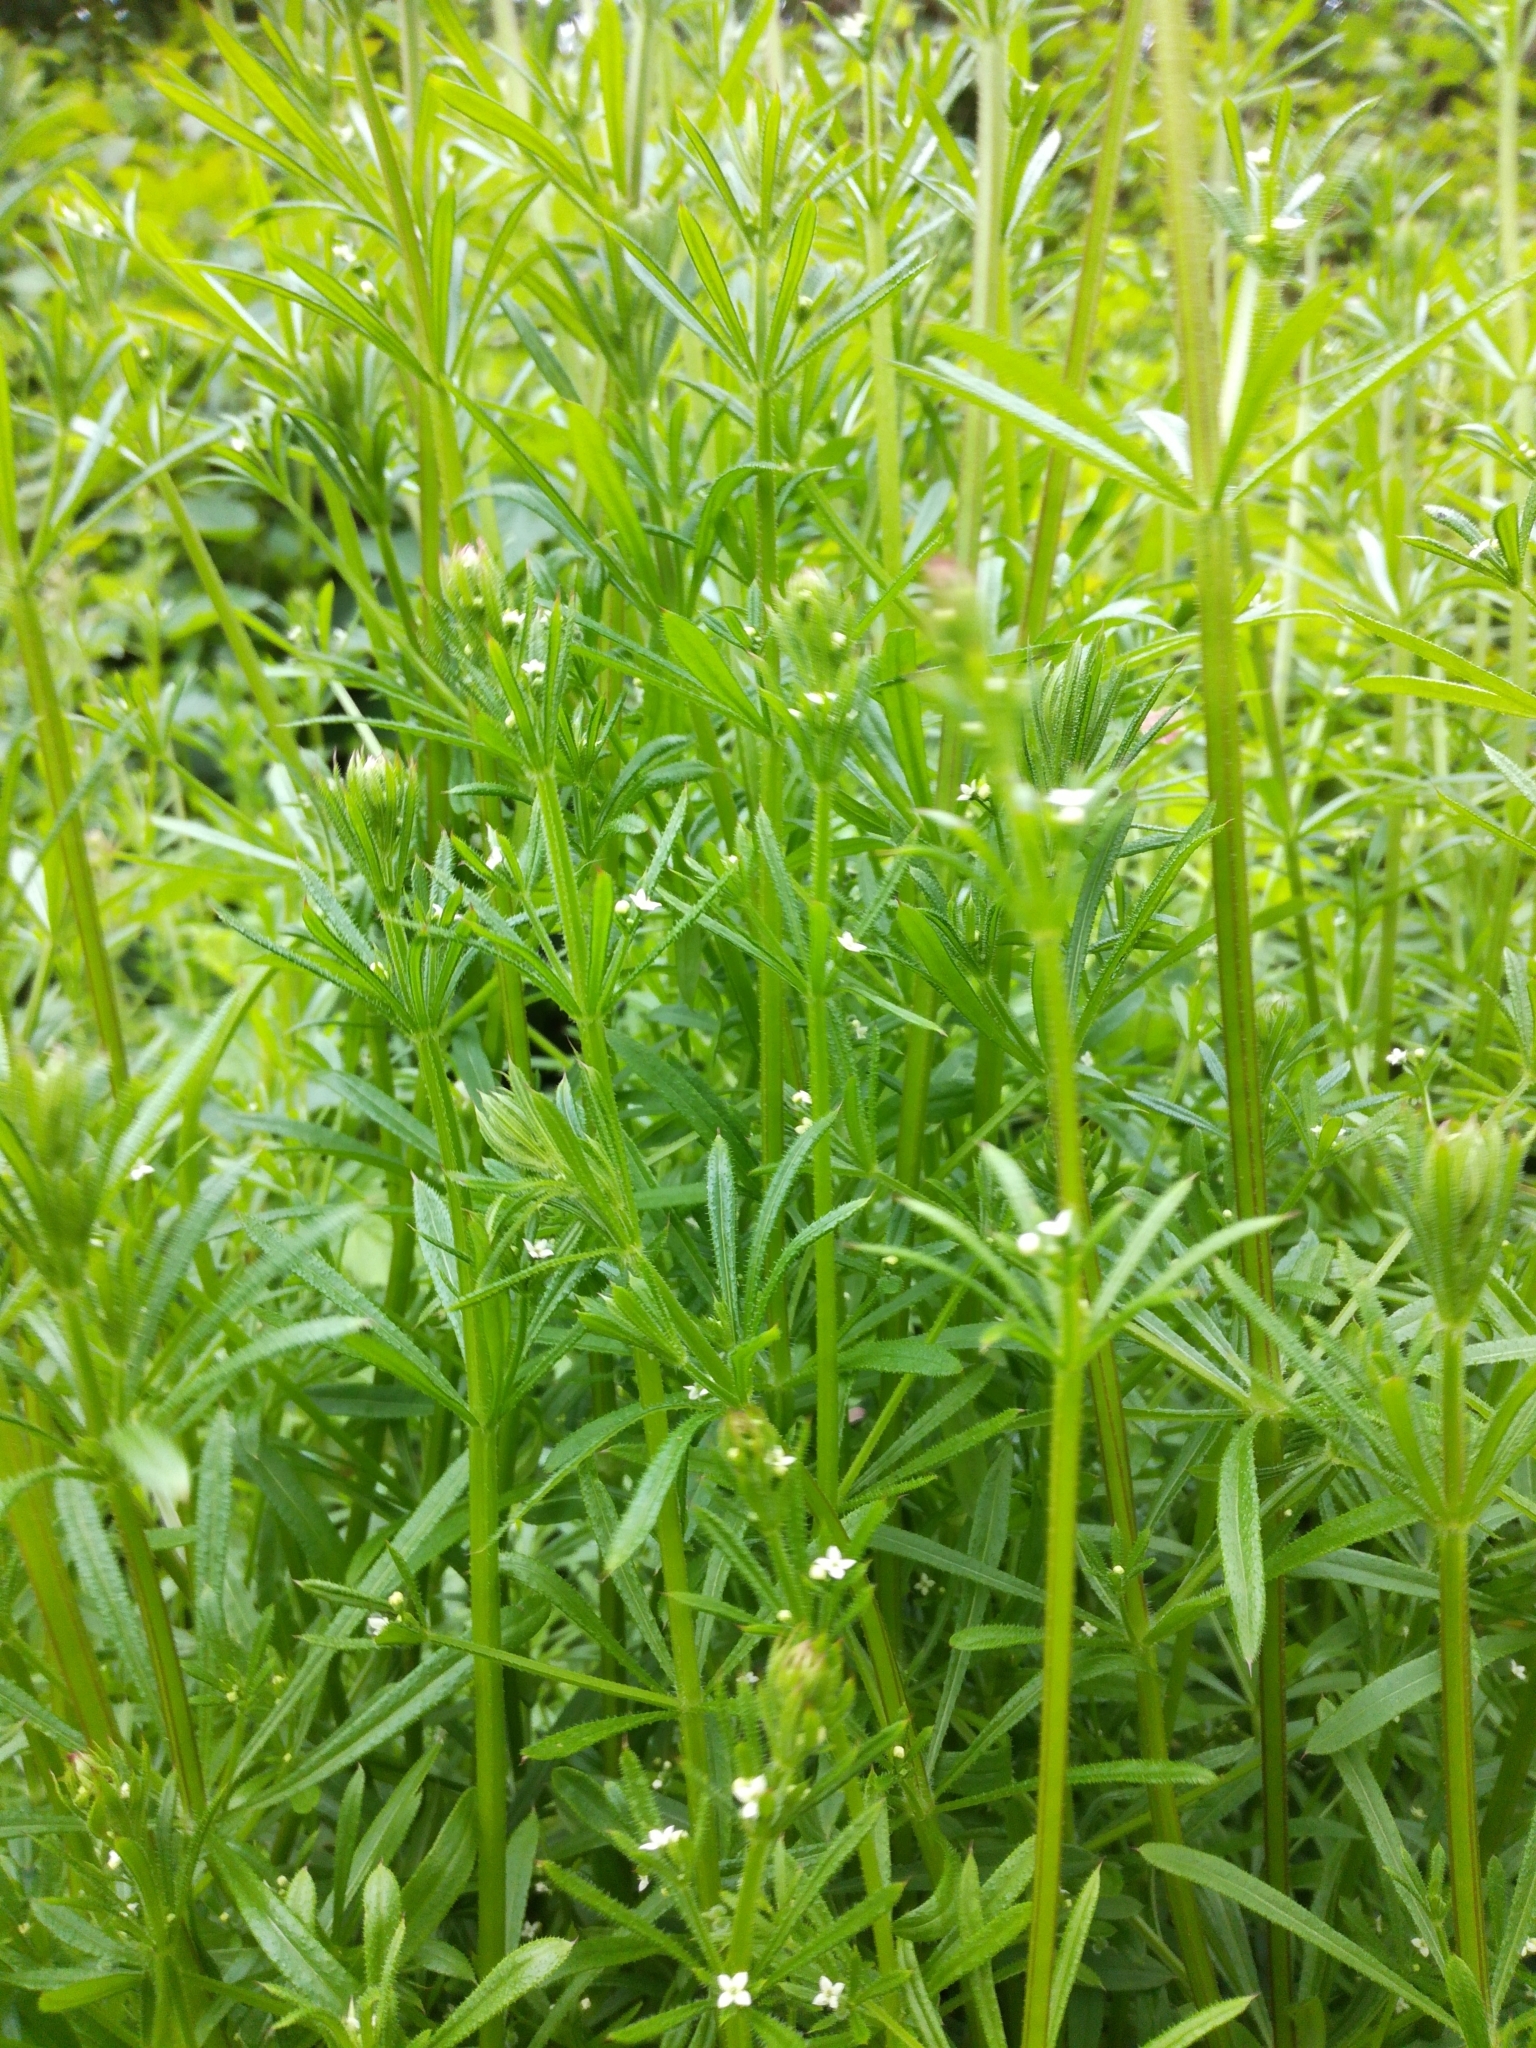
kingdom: Plantae
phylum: Tracheophyta
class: Magnoliopsida
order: Gentianales
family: Rubiaceae
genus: Galium
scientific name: Galium aparine
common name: Cleavers
